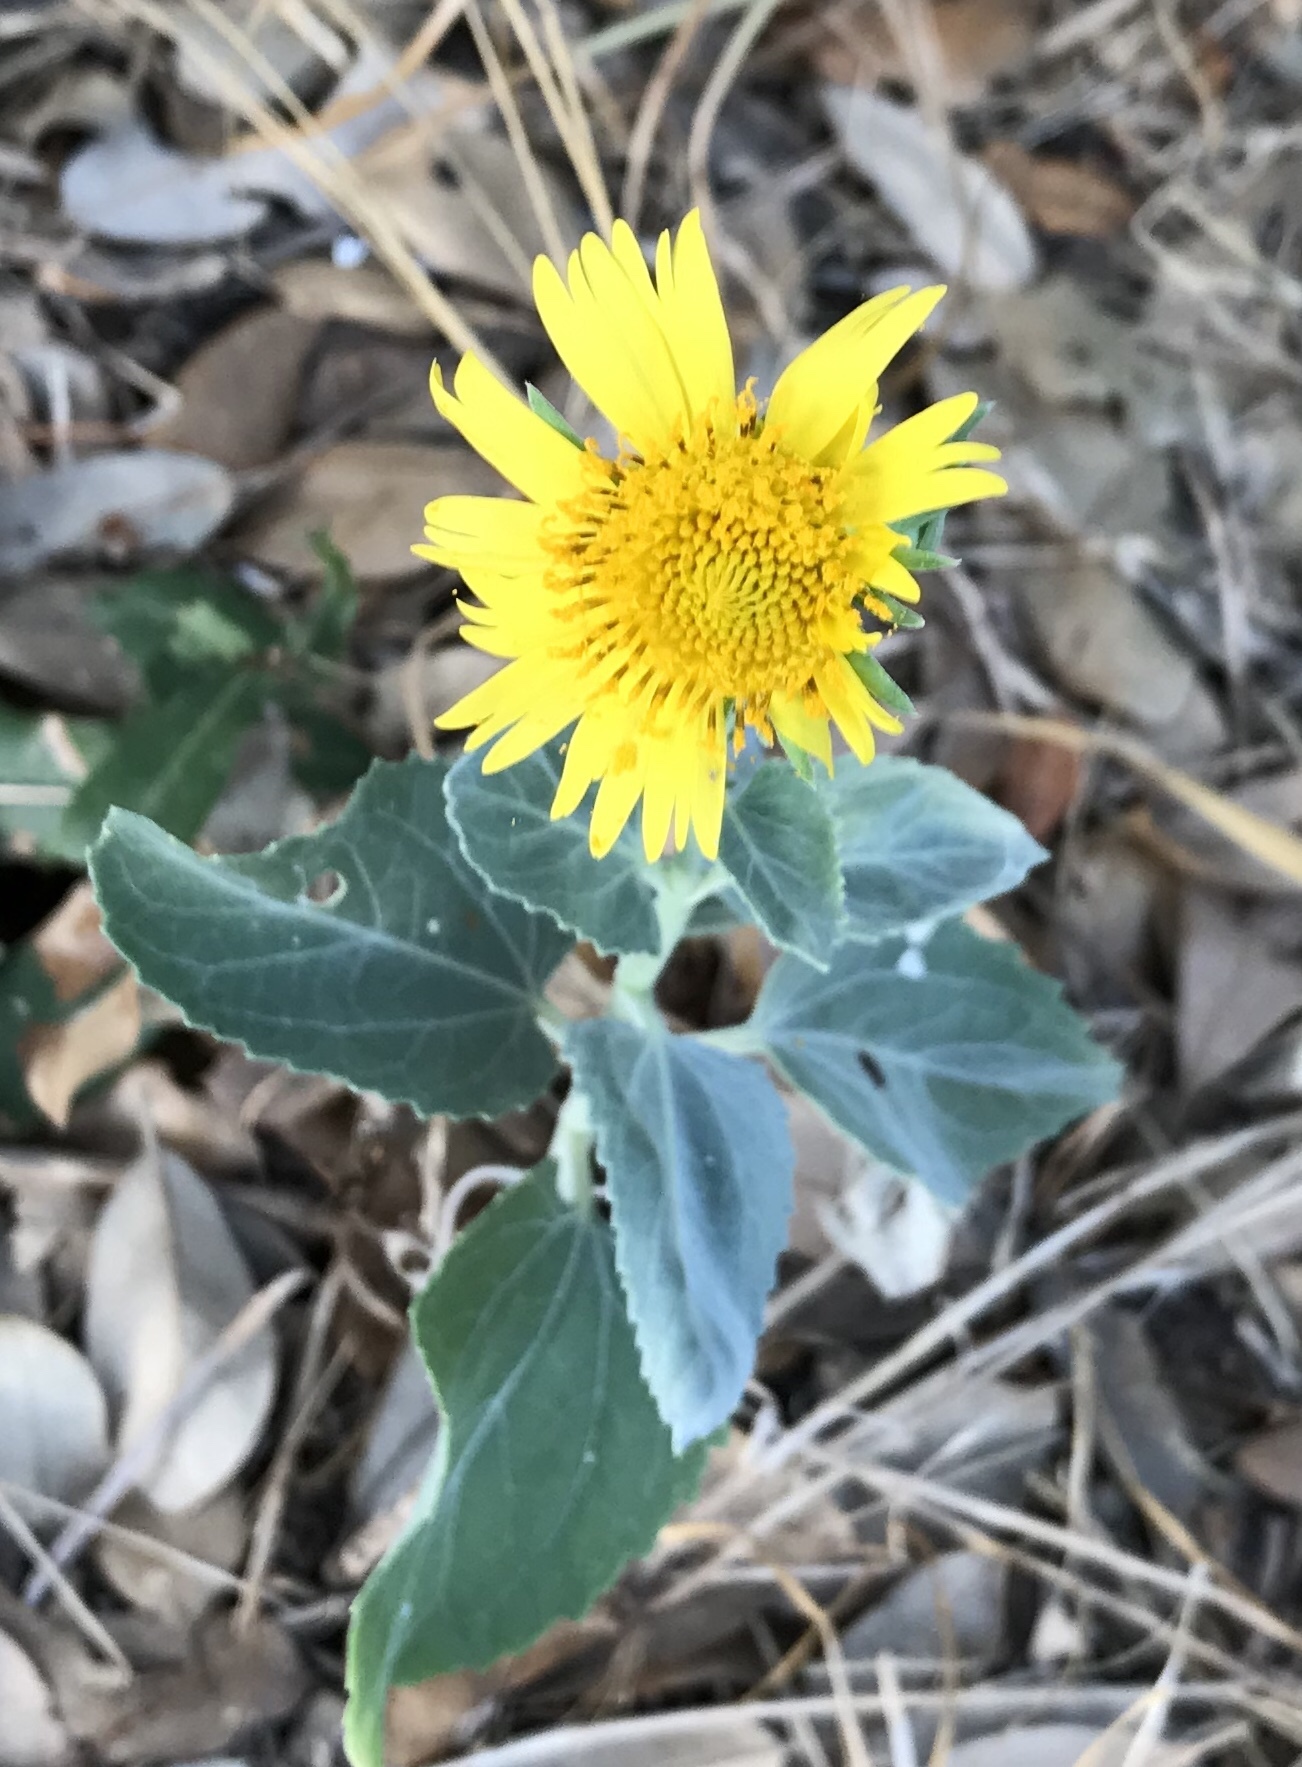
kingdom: Plantae
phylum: Tracheophyta
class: Magnoliopsida
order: Asterales
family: Asteraceae
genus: Verbesina
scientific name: Verbesina encelioides
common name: Golden crownbeard
